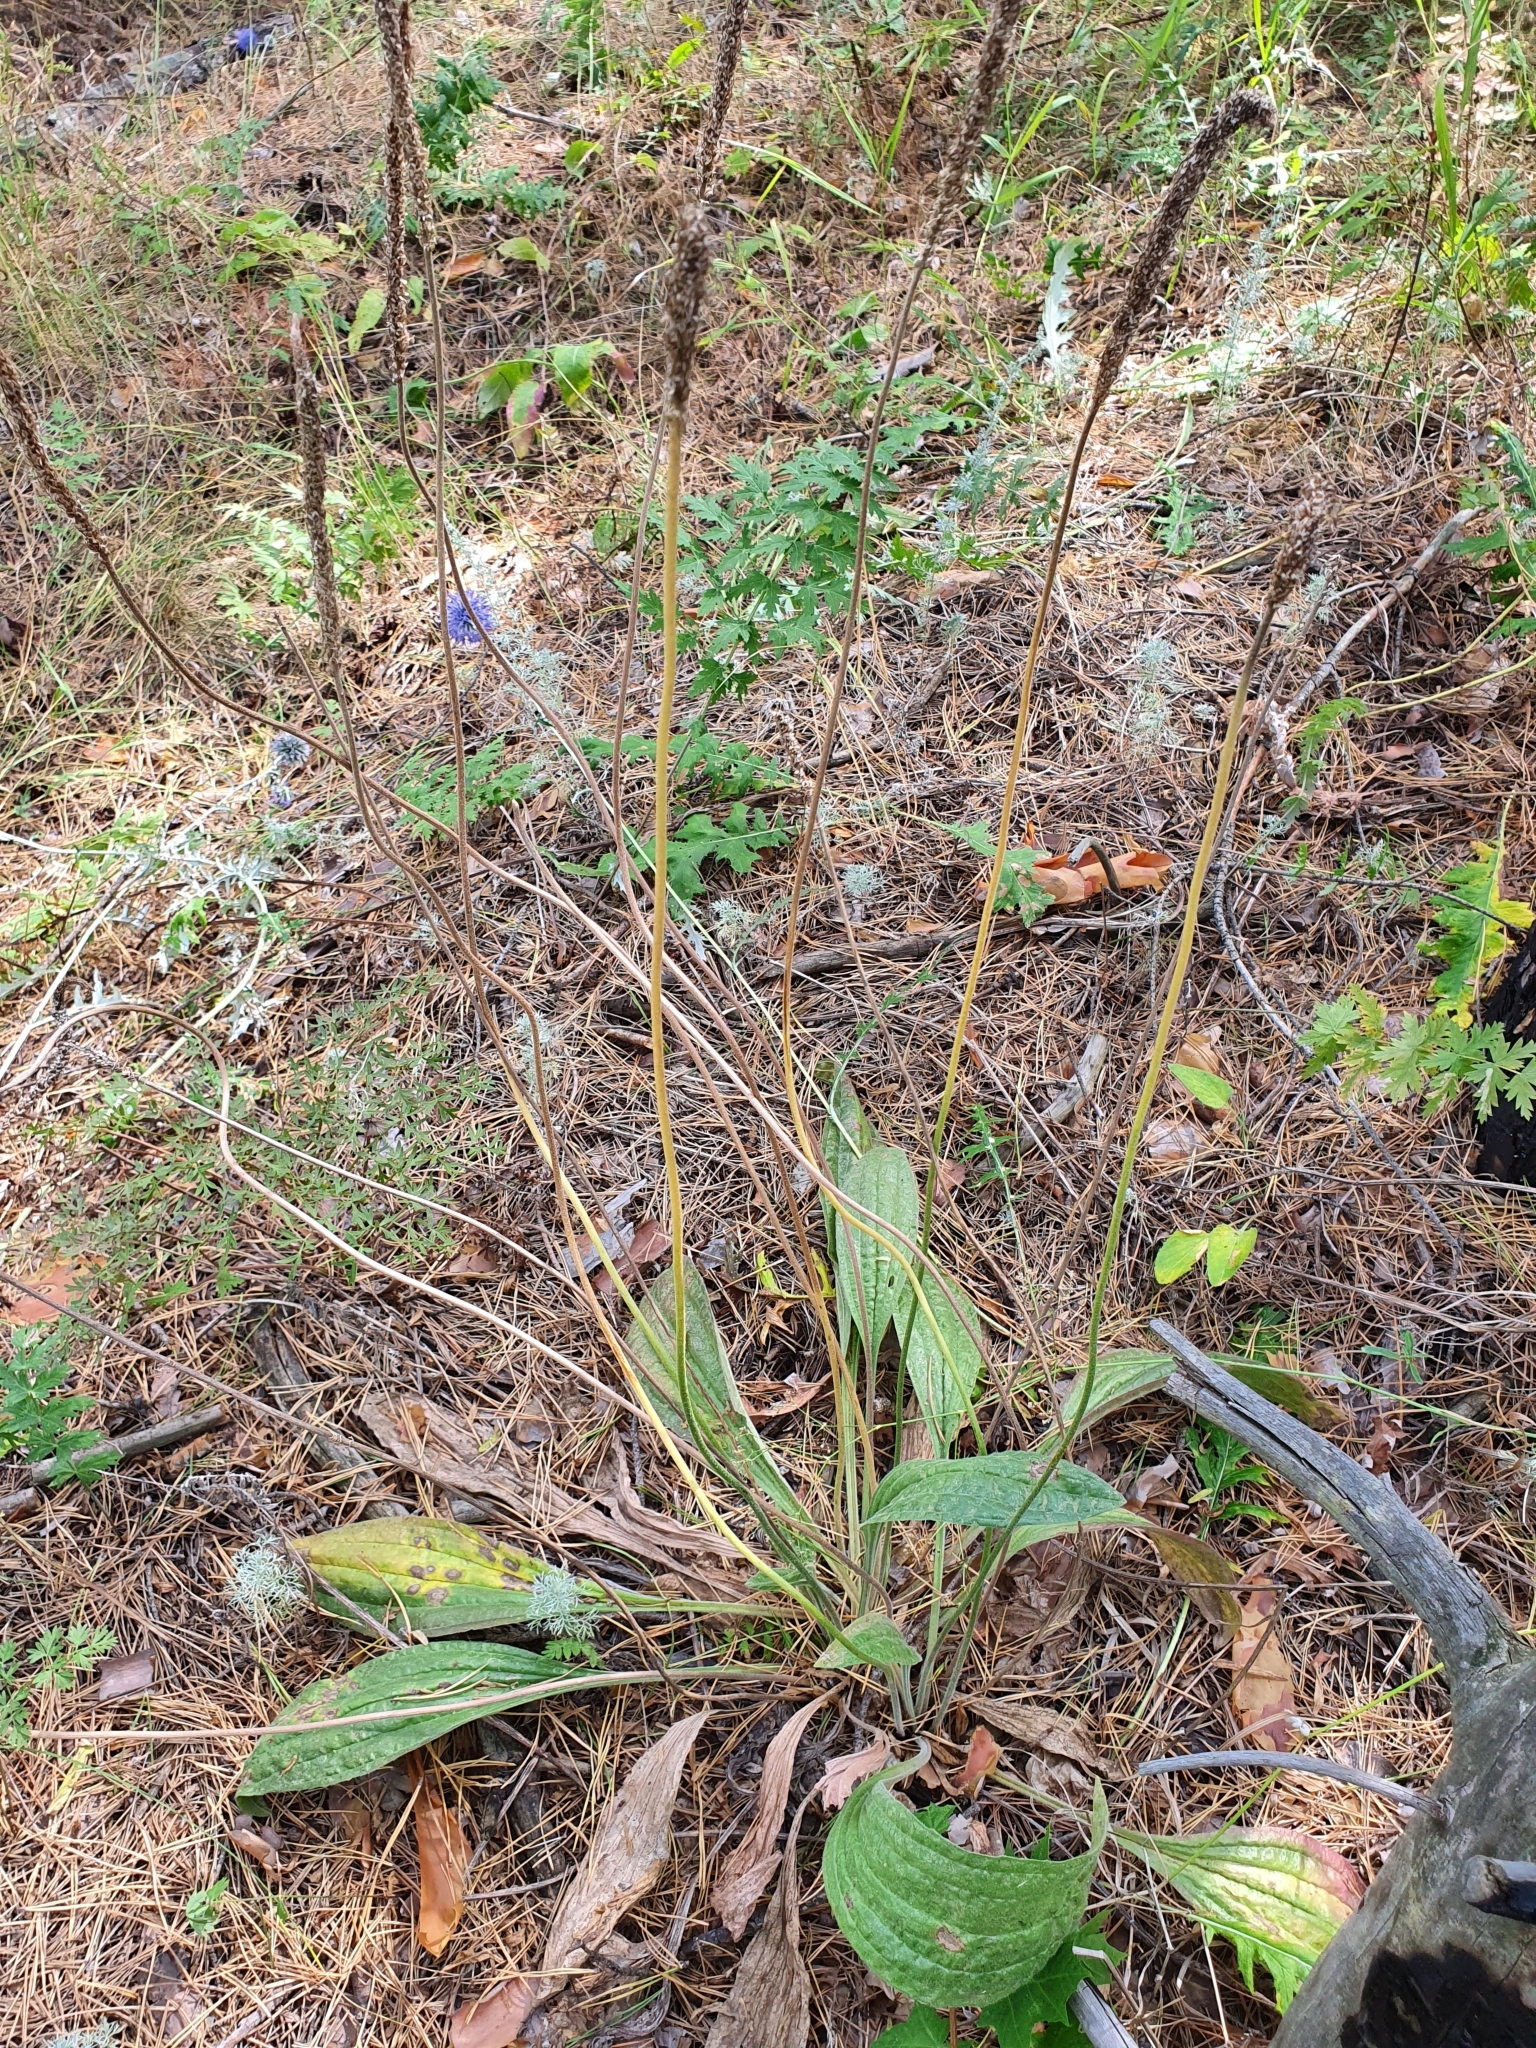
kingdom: Plantae
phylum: Tracheophyta
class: Magnoliopsida
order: Lamiales
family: Plantaginaceae
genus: Plantago
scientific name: Plantago urvillei
